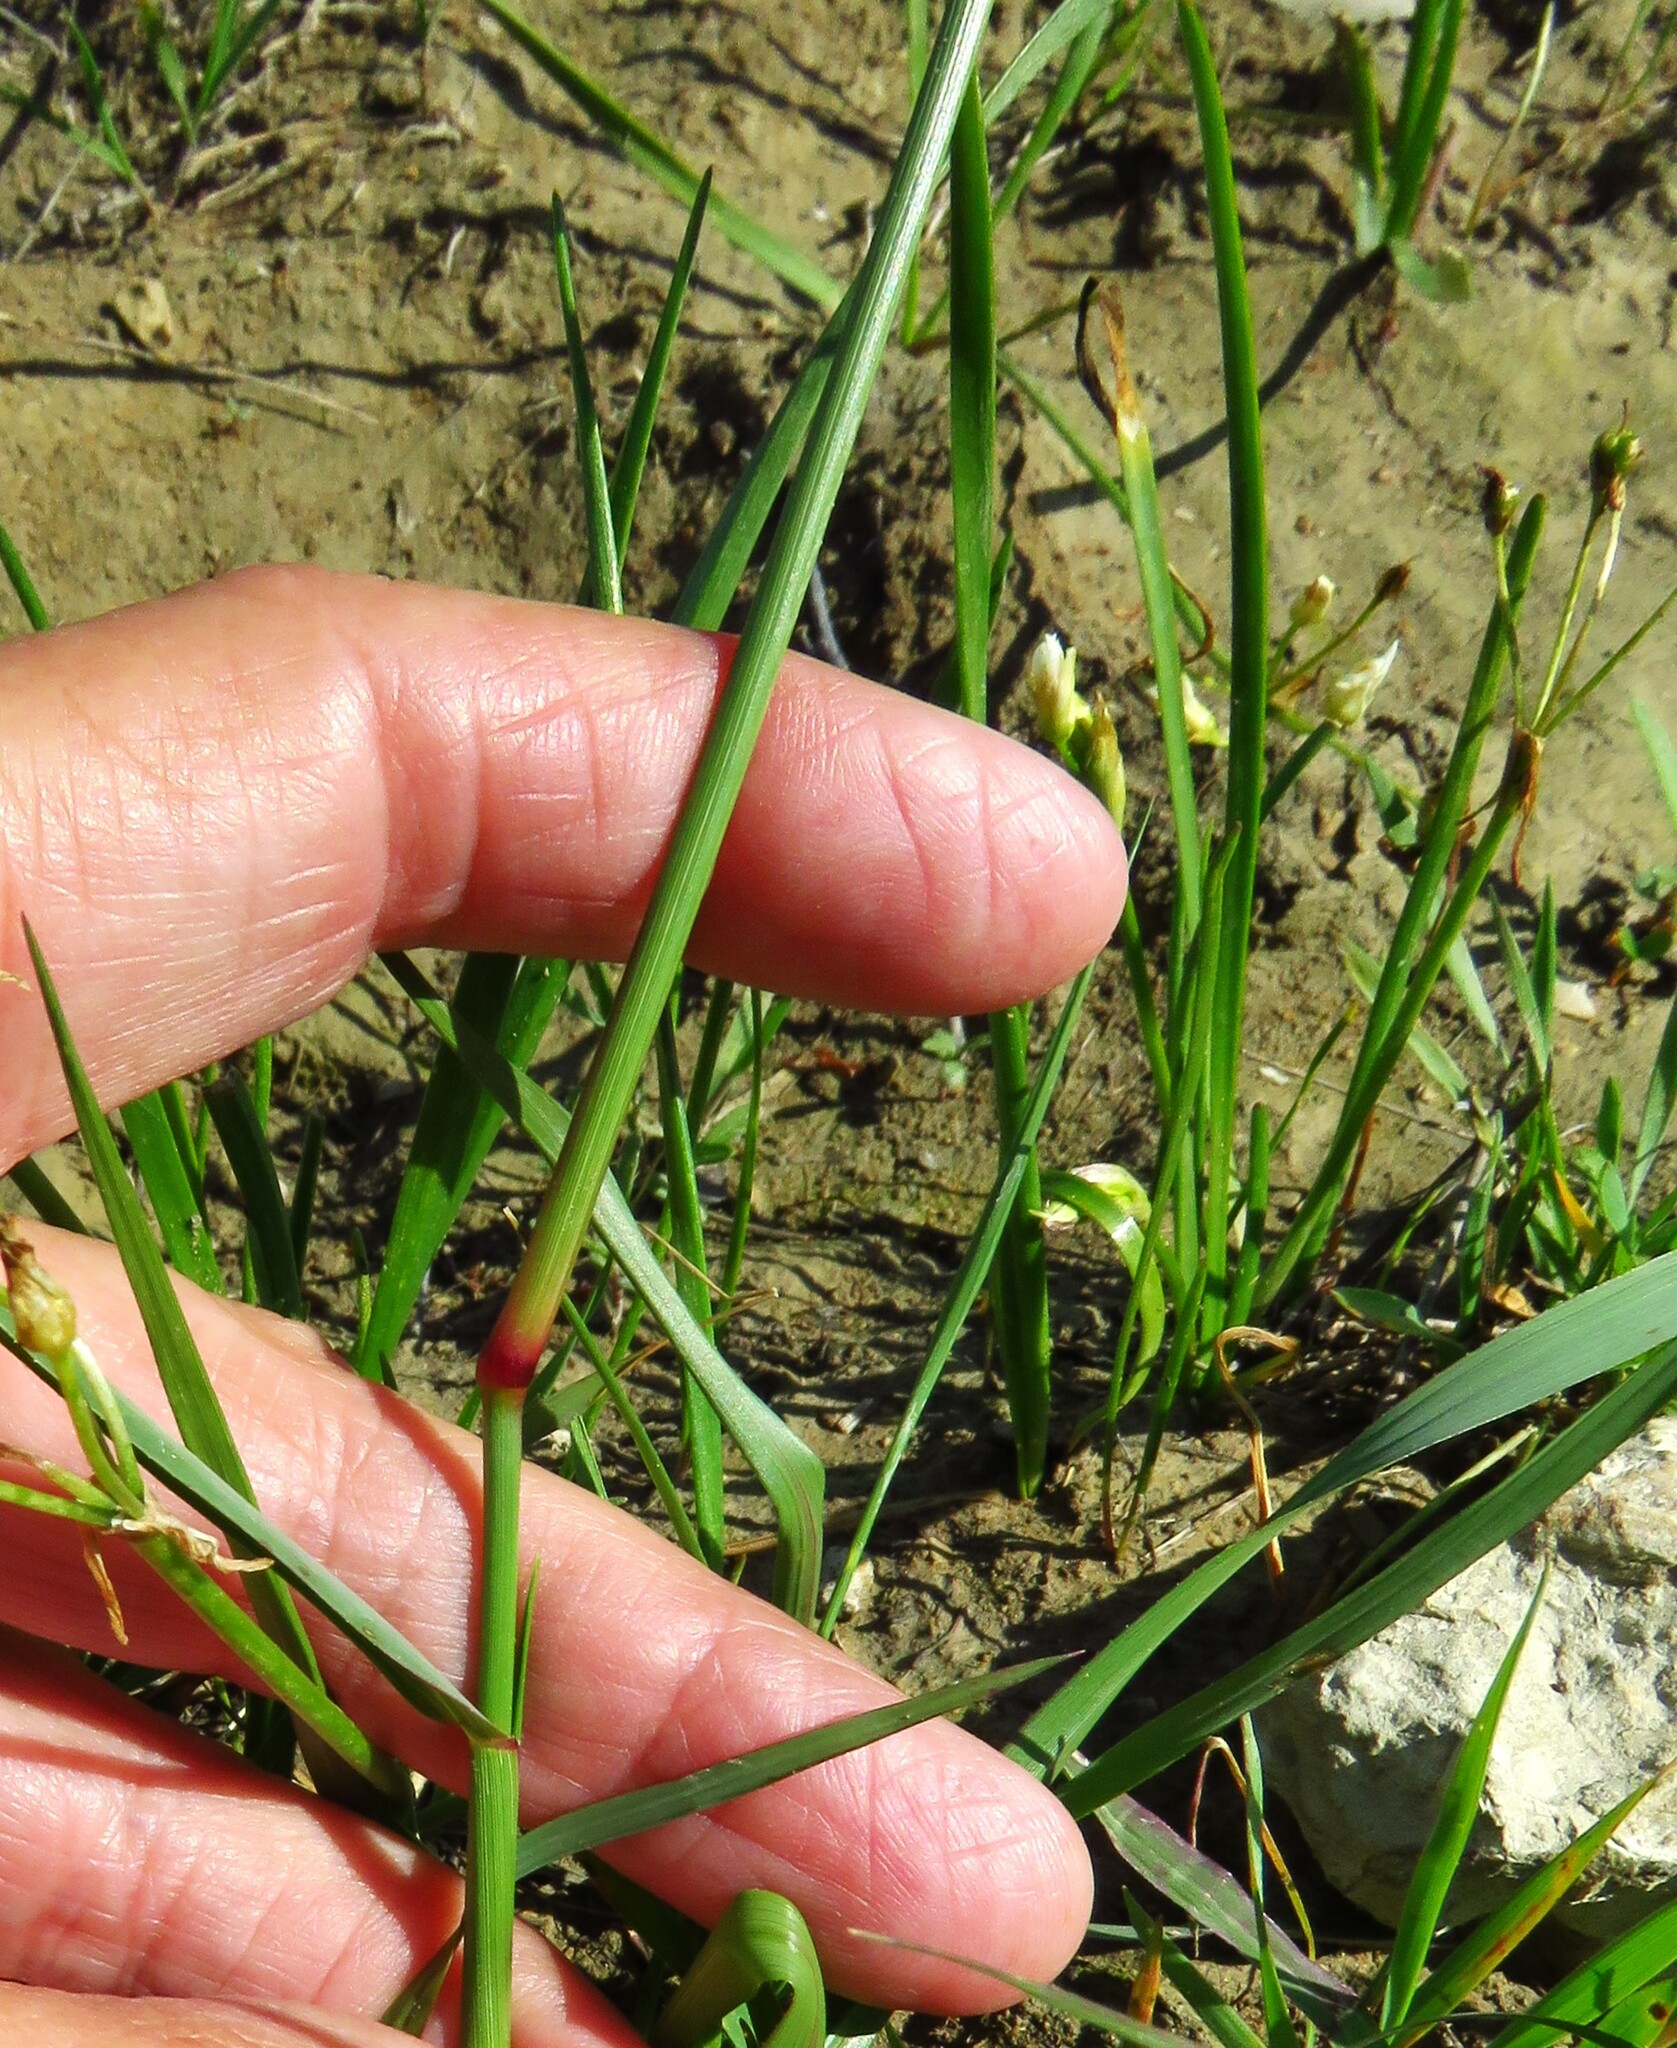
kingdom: Plantae
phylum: Tracheophyta
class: Liliopsida
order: Poales
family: Poaceae
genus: Tridens
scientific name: Tridens albescens
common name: White tridens
